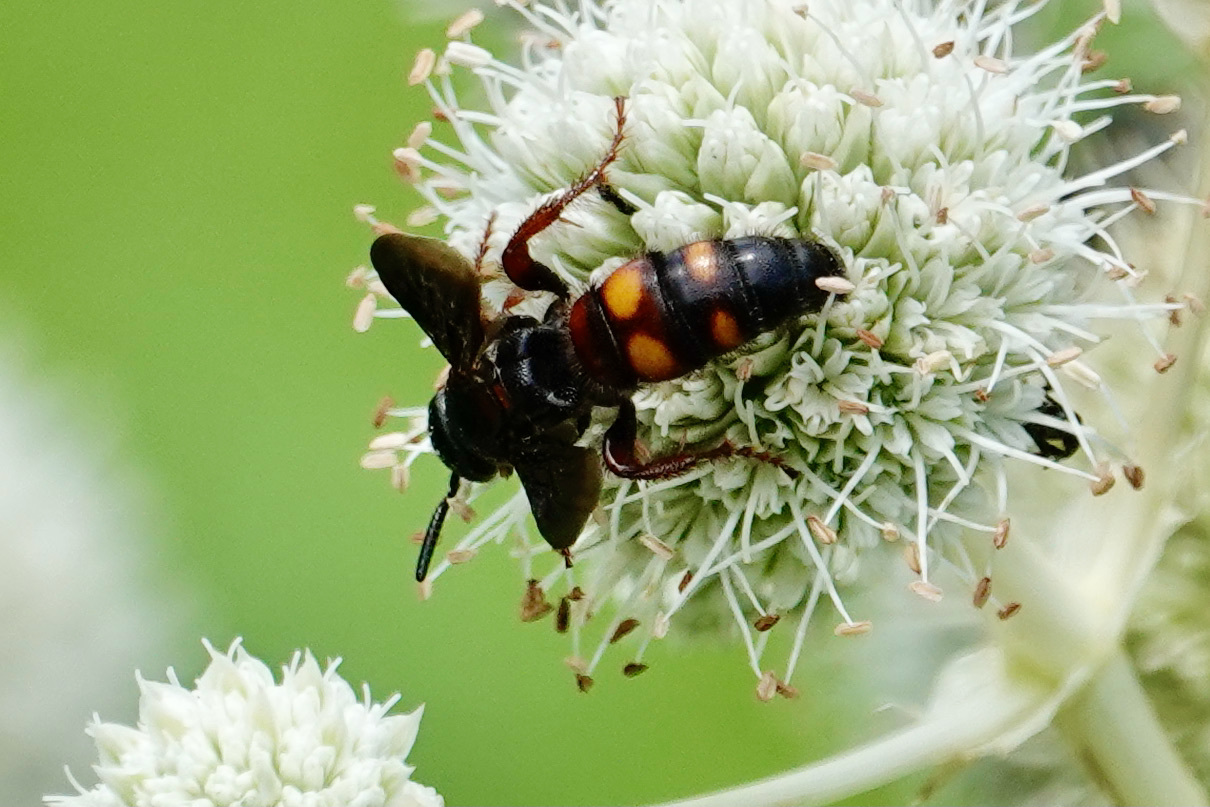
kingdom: Animalia
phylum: Arthropoda
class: Insecta
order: Hymenoptera
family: Scoliidae
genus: Scolia
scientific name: Scolia nobilitata
